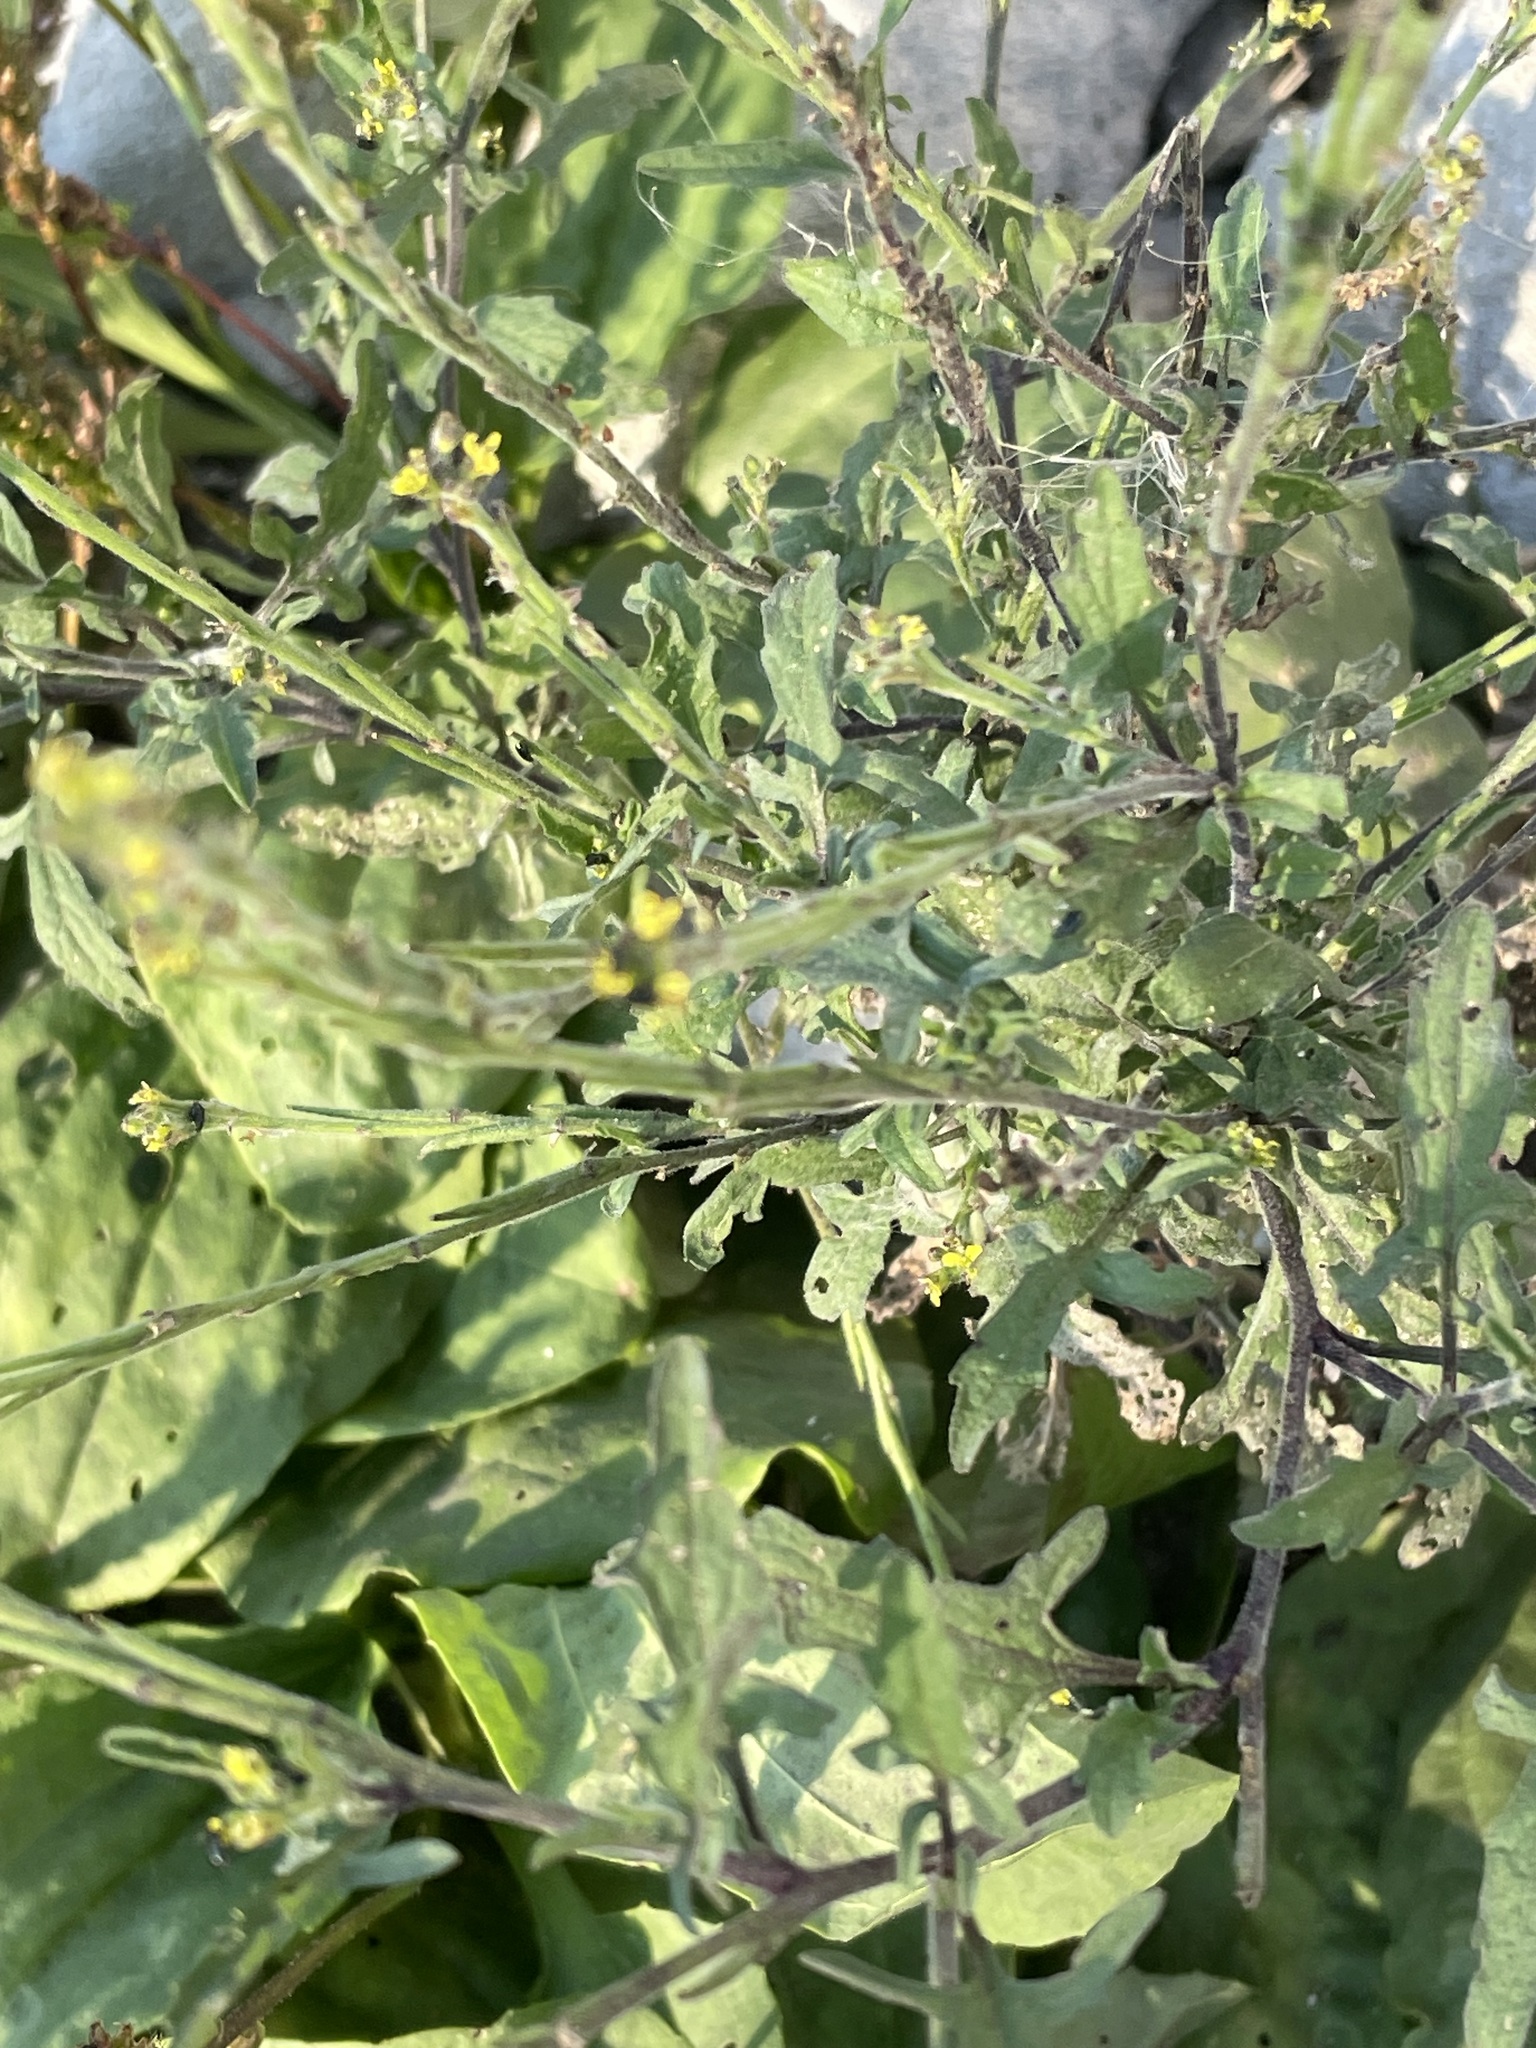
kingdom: Plantae
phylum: Tracheophyta
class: Magnoliopsida
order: Brassicales
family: Brassicaceae
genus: Sisymbrium
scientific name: Sisymbrium officinale
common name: Hedge mustard
